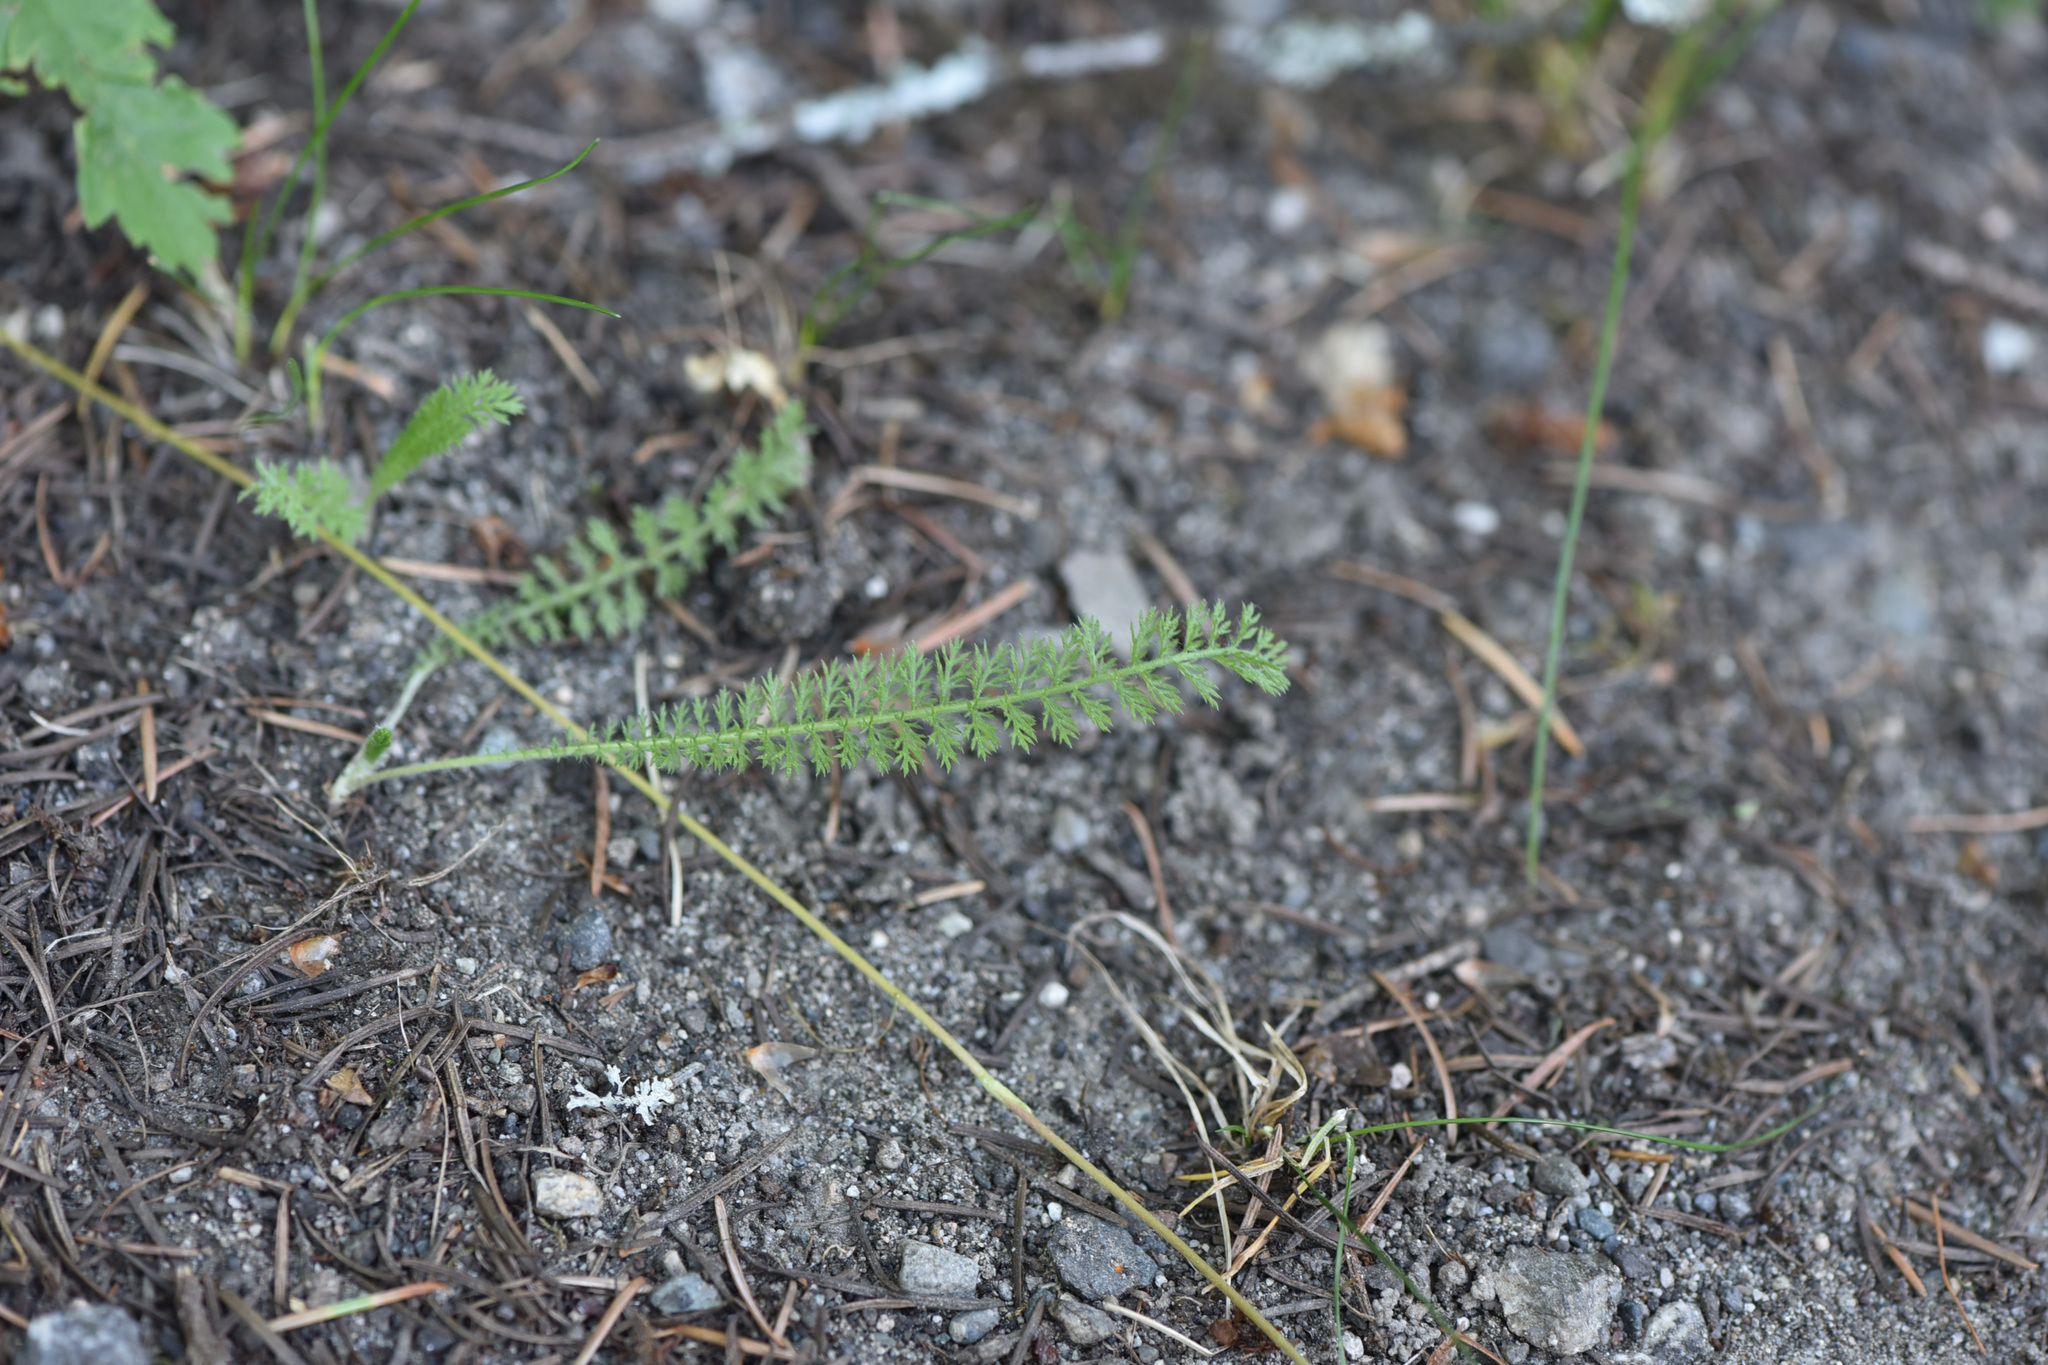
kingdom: Plantae
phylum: Tracheophyta
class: Magnoliopsida
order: Asterales
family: Asteraceae
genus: Achillea
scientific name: Achillea millefolium
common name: Yarrow
